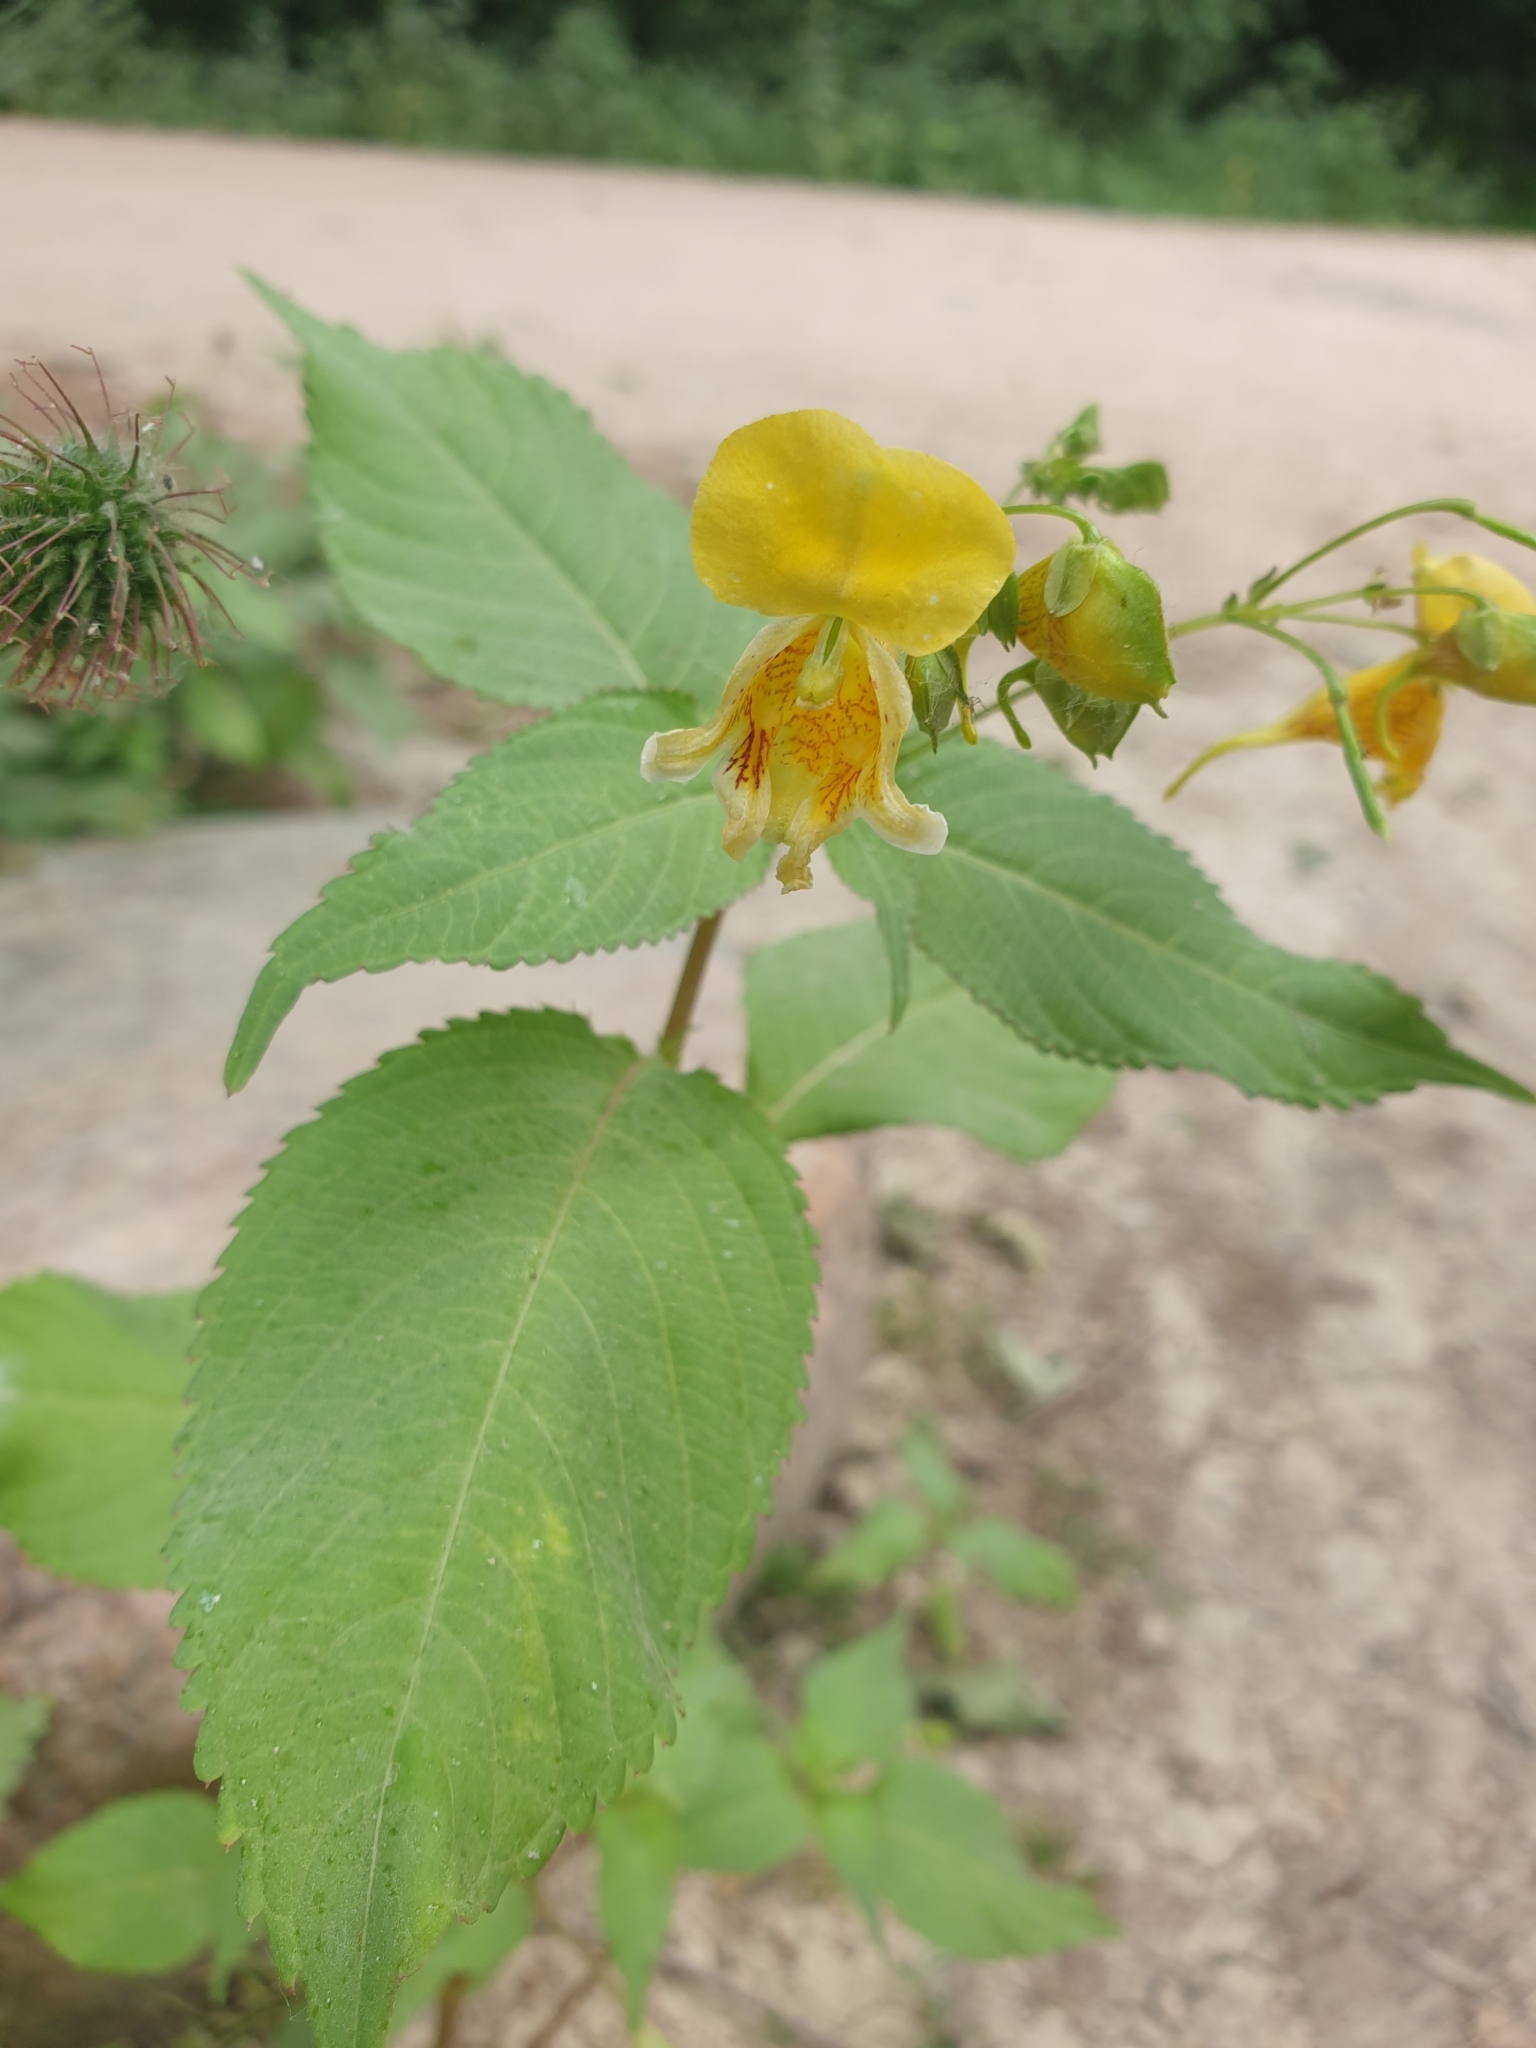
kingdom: Plantae
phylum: Tracheophyta
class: Magnoliopsida
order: Ericales
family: Balsaminaceae
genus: Impatiens
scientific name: Impatiens edgeworthii
